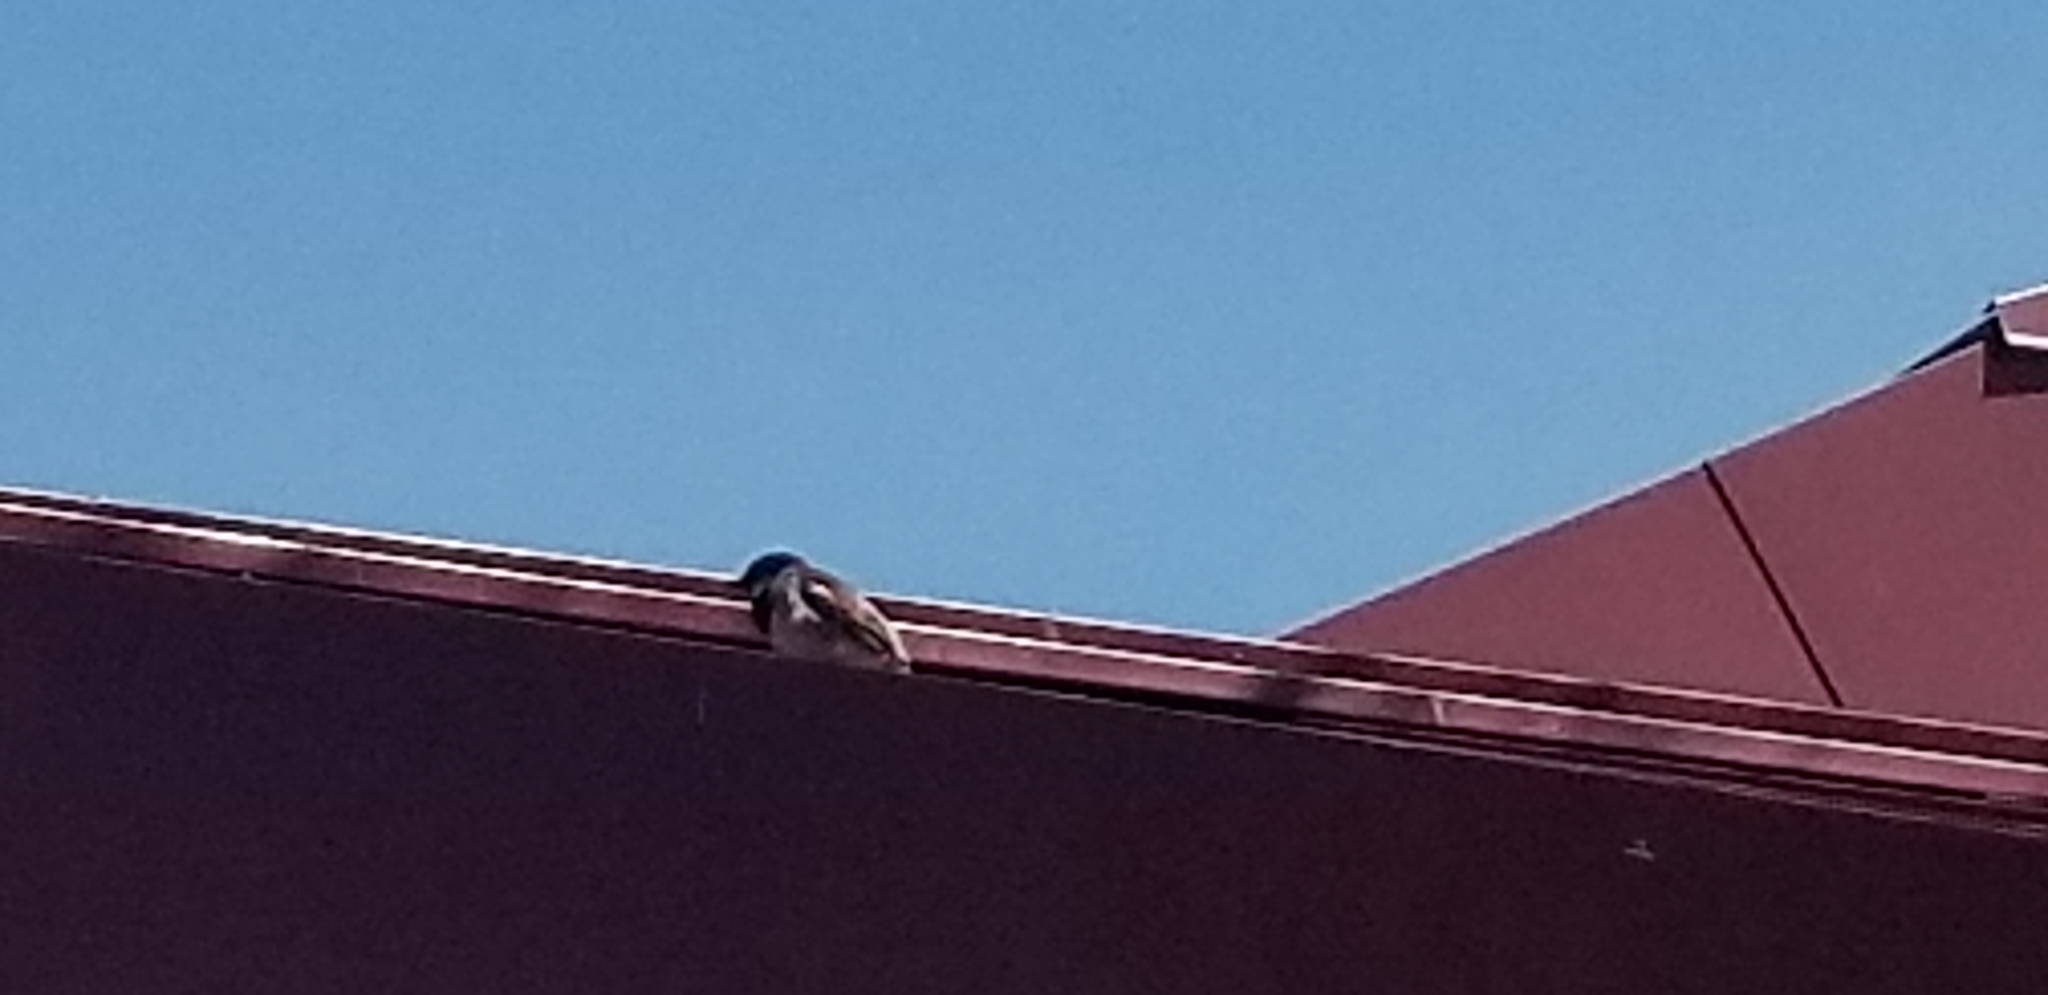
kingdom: Animalia
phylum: Chordata
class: Aves
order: Passeriformes
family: Passeridae
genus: Passer
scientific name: Passer domesticus
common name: House sparrow
